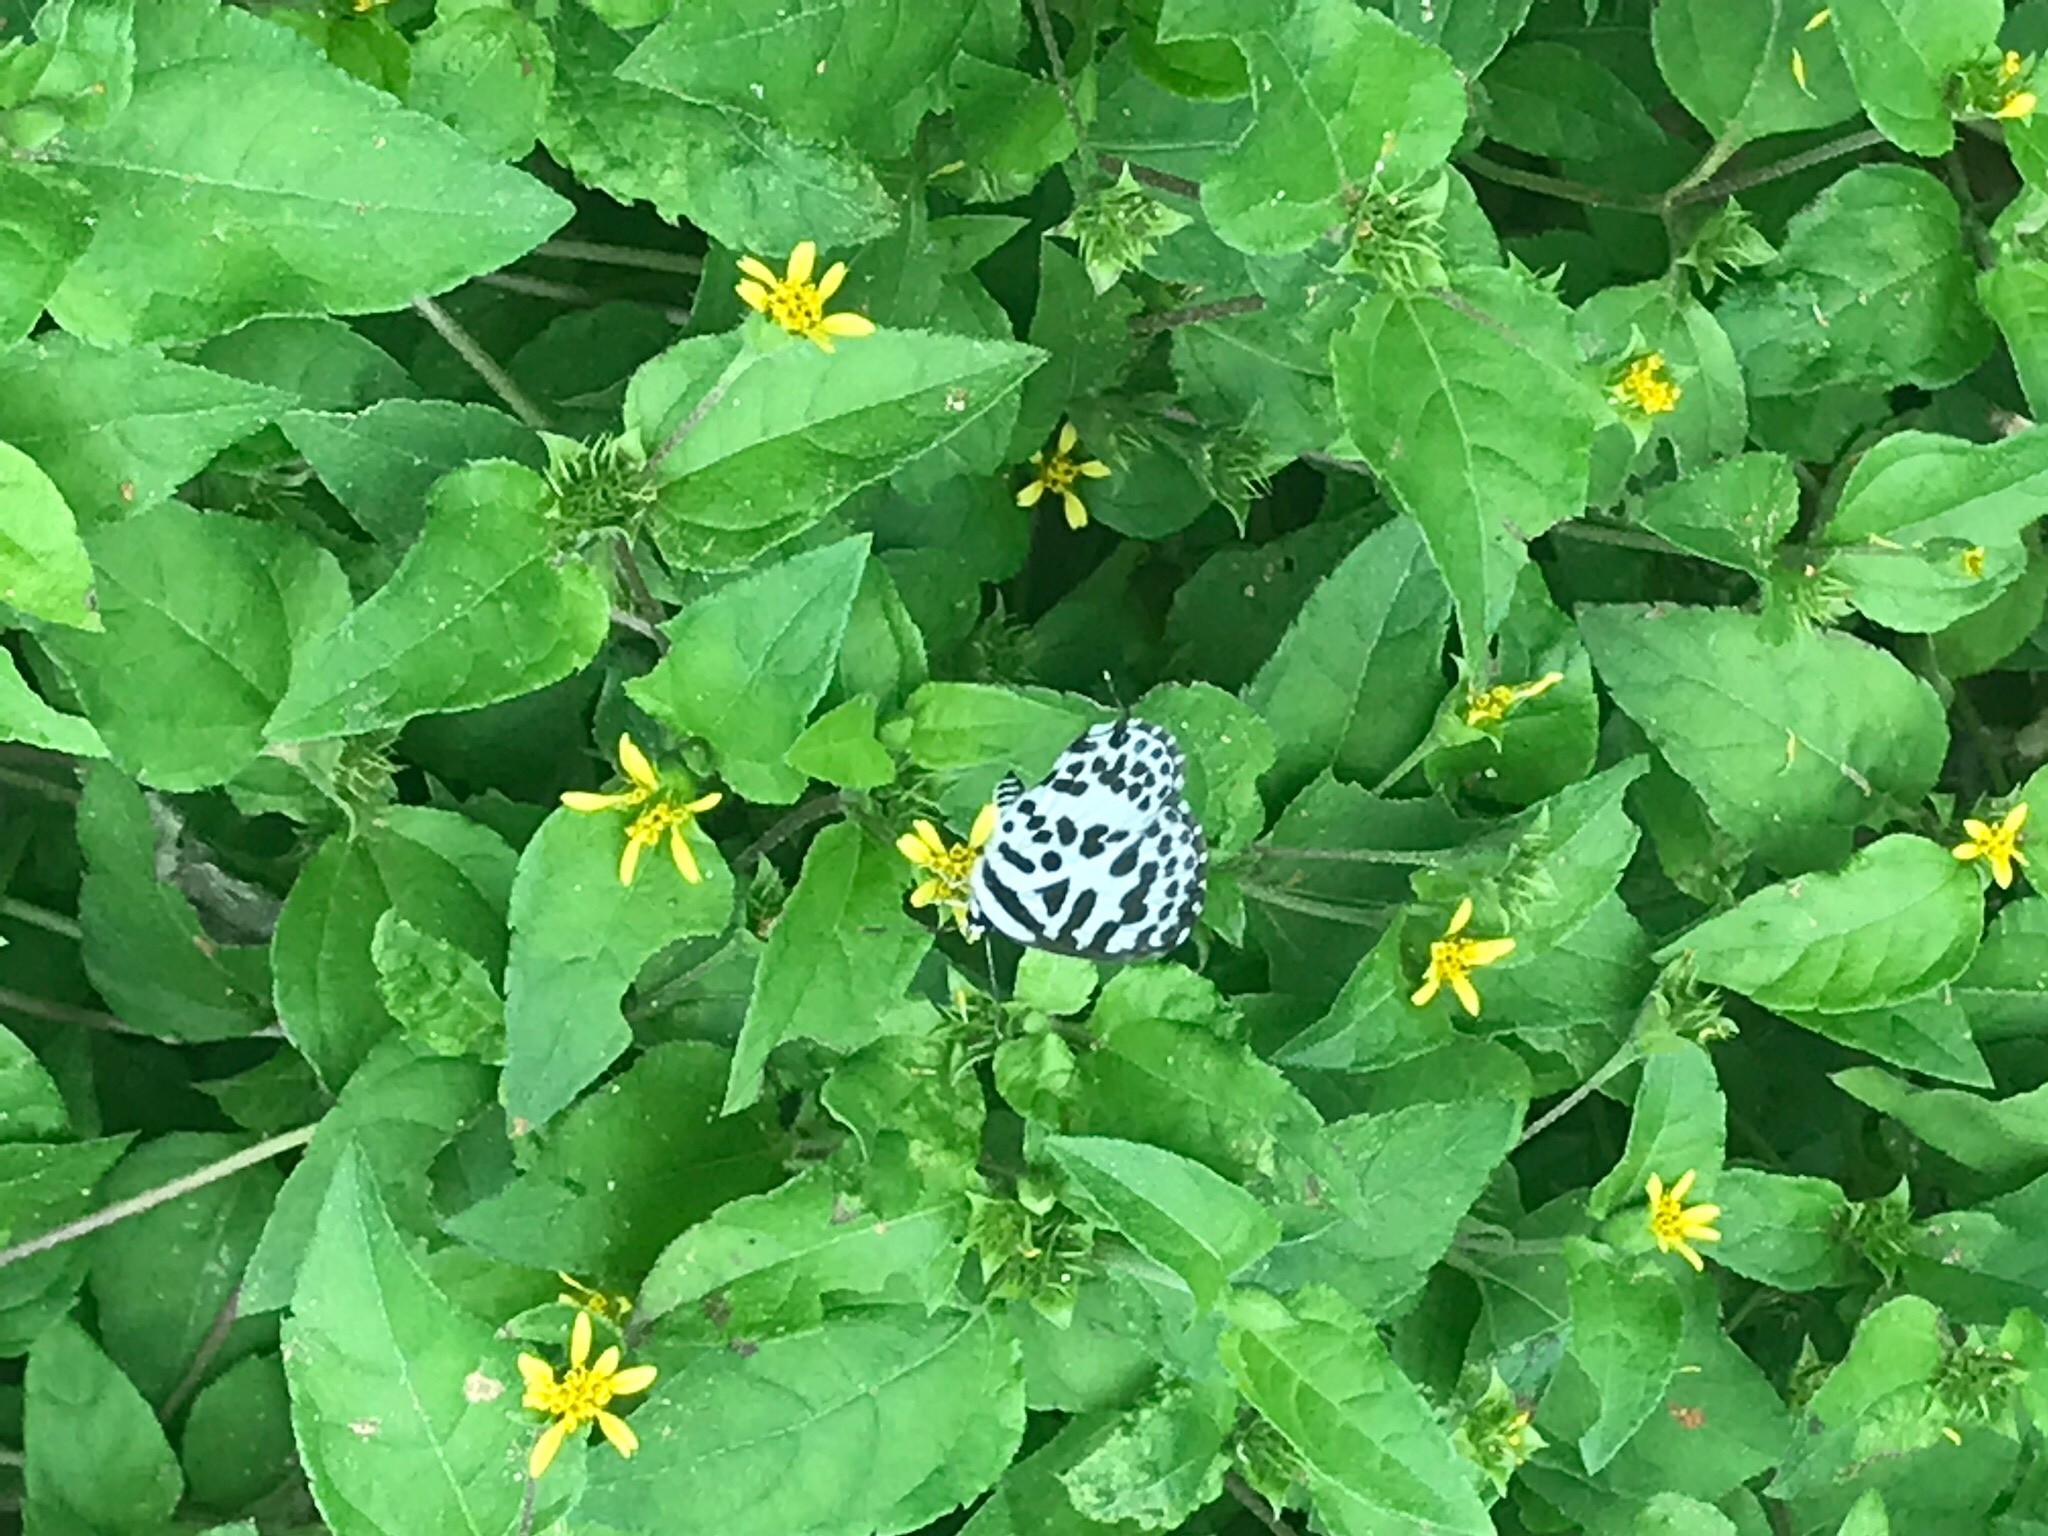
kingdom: Animalia
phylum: Arthropoda
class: Insecta
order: Lepidoptera
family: Lycaenidae
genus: Castalius
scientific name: Castalius rosimon
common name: Common pierrot
